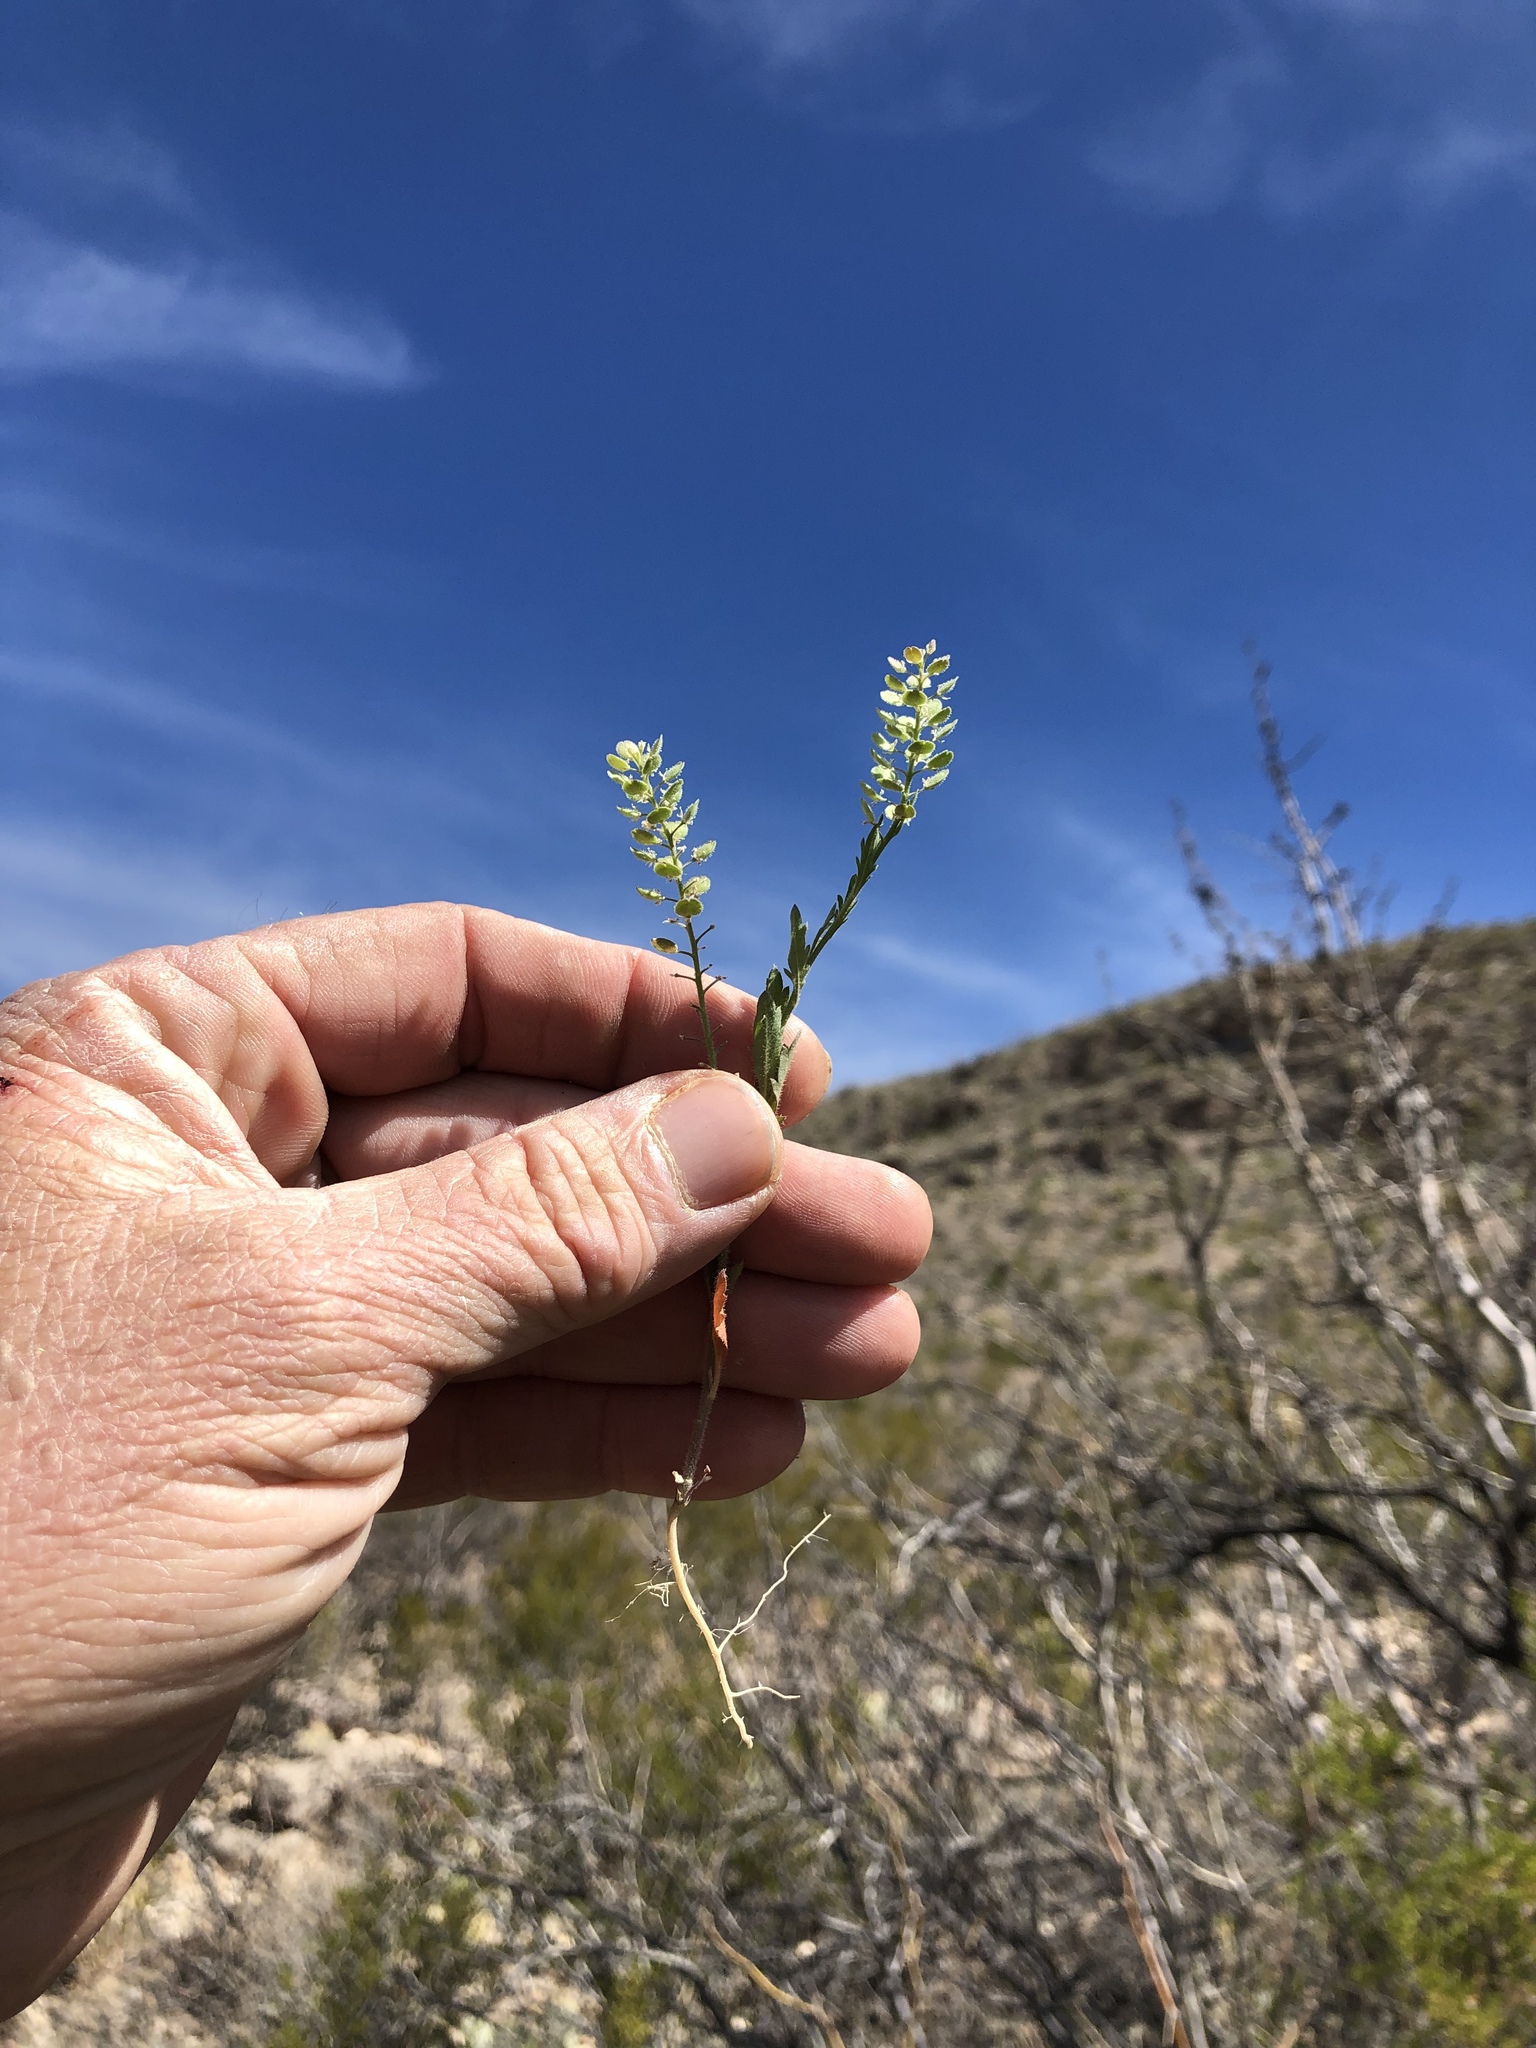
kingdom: Plantae
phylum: Tracheophyta
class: Magnoliopsida
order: Brassicales
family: Brassicaceae
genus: Lepidium
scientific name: Lepidium lasiocarpum
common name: Hairy-pod pepperwort
